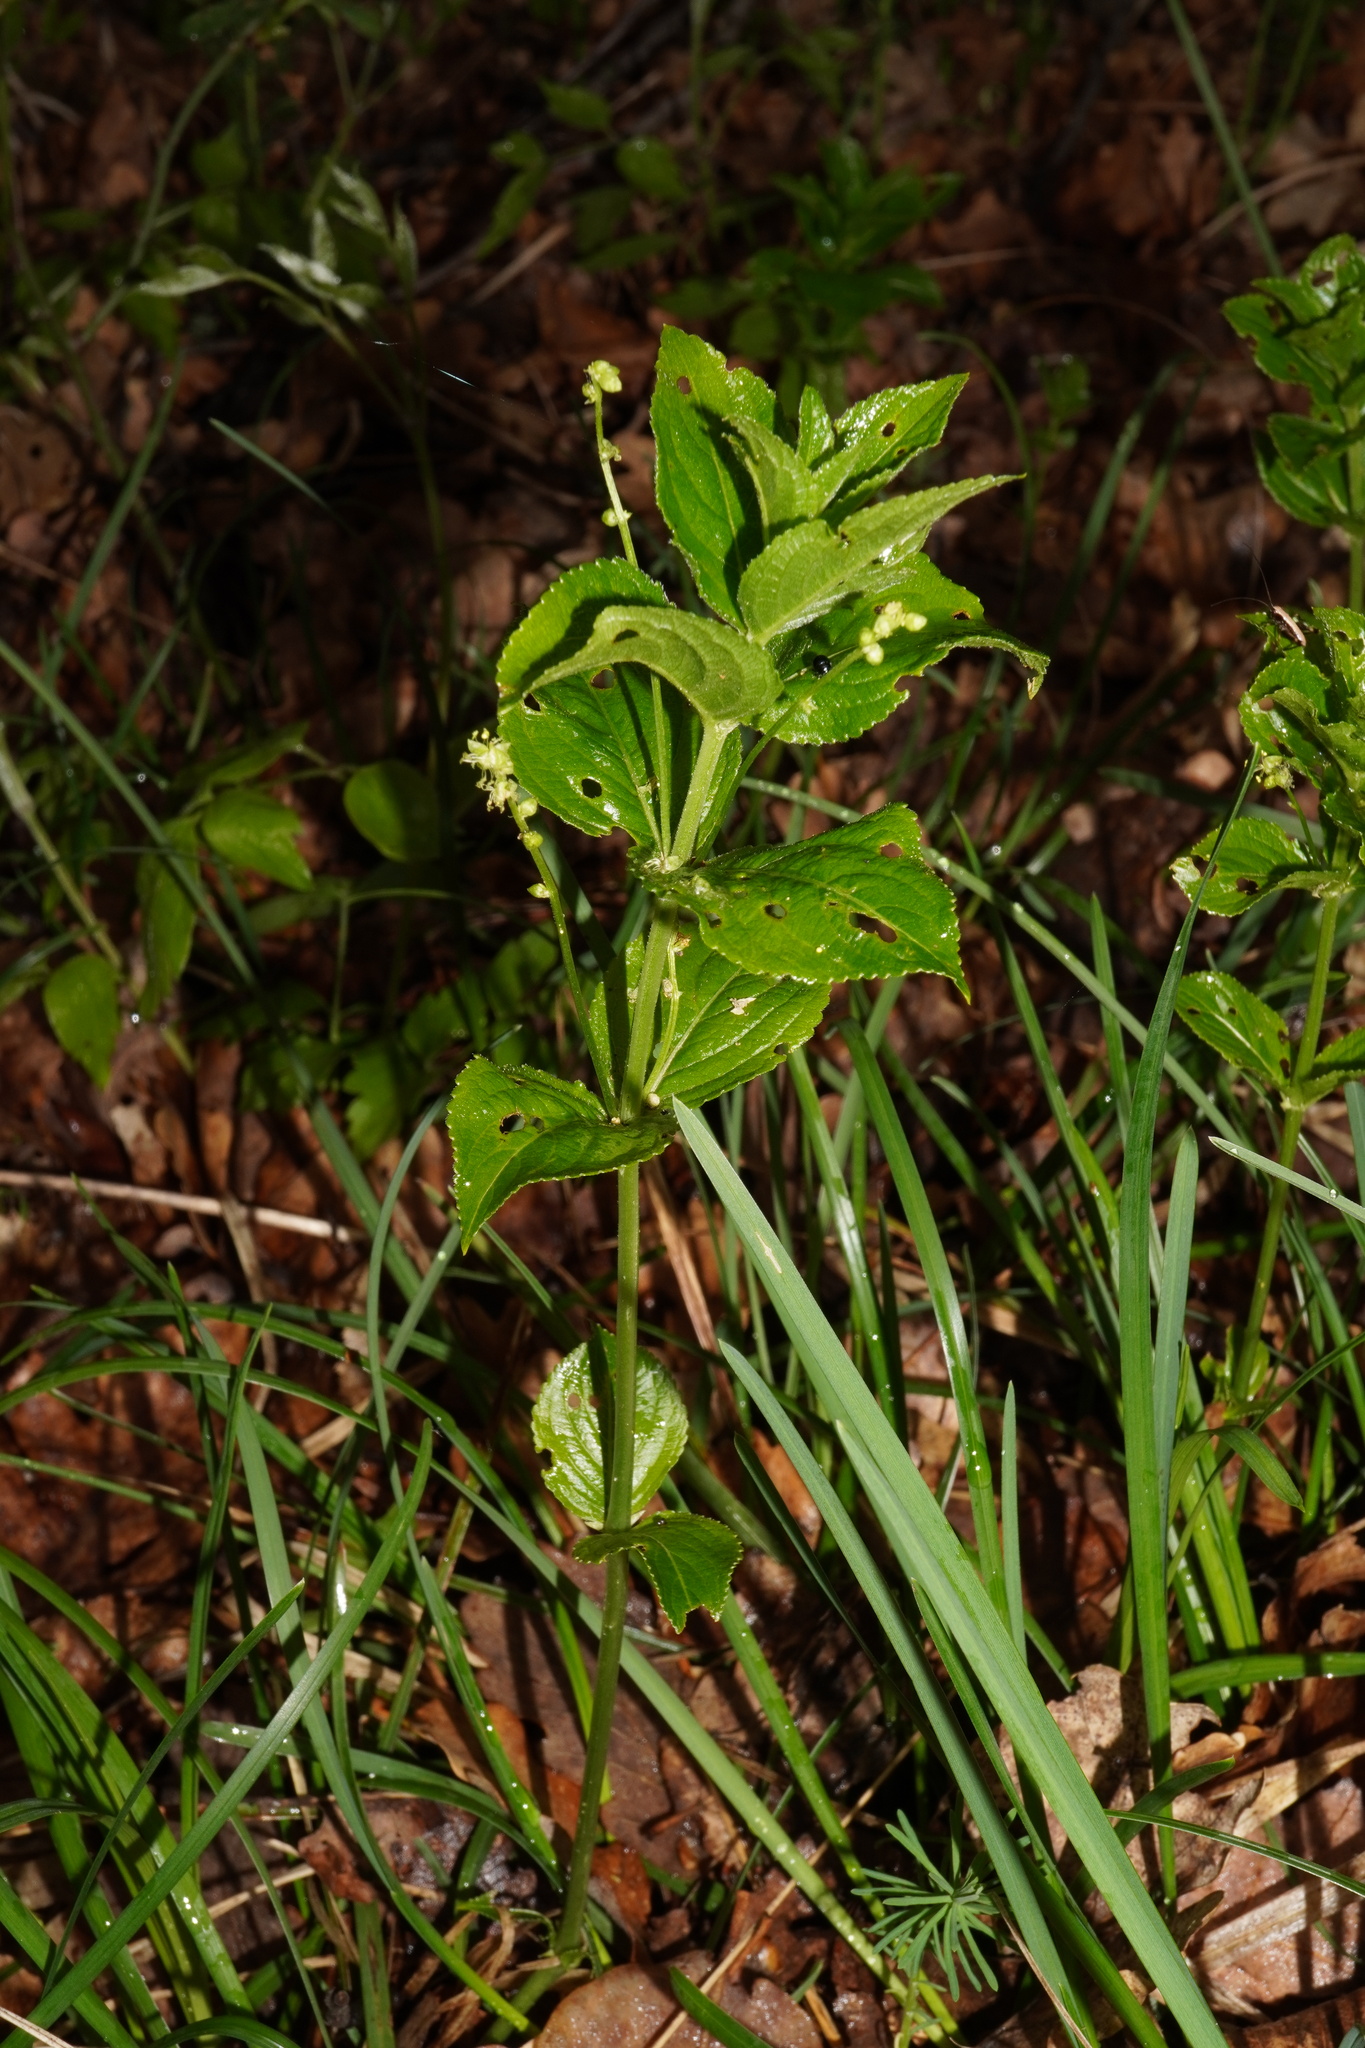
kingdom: Plantae
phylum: Tracheophyta
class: Magnoliopsida
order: Malpighiales
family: Euphorbiaceae
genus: Mercurialis
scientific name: Mercurialis ovata
